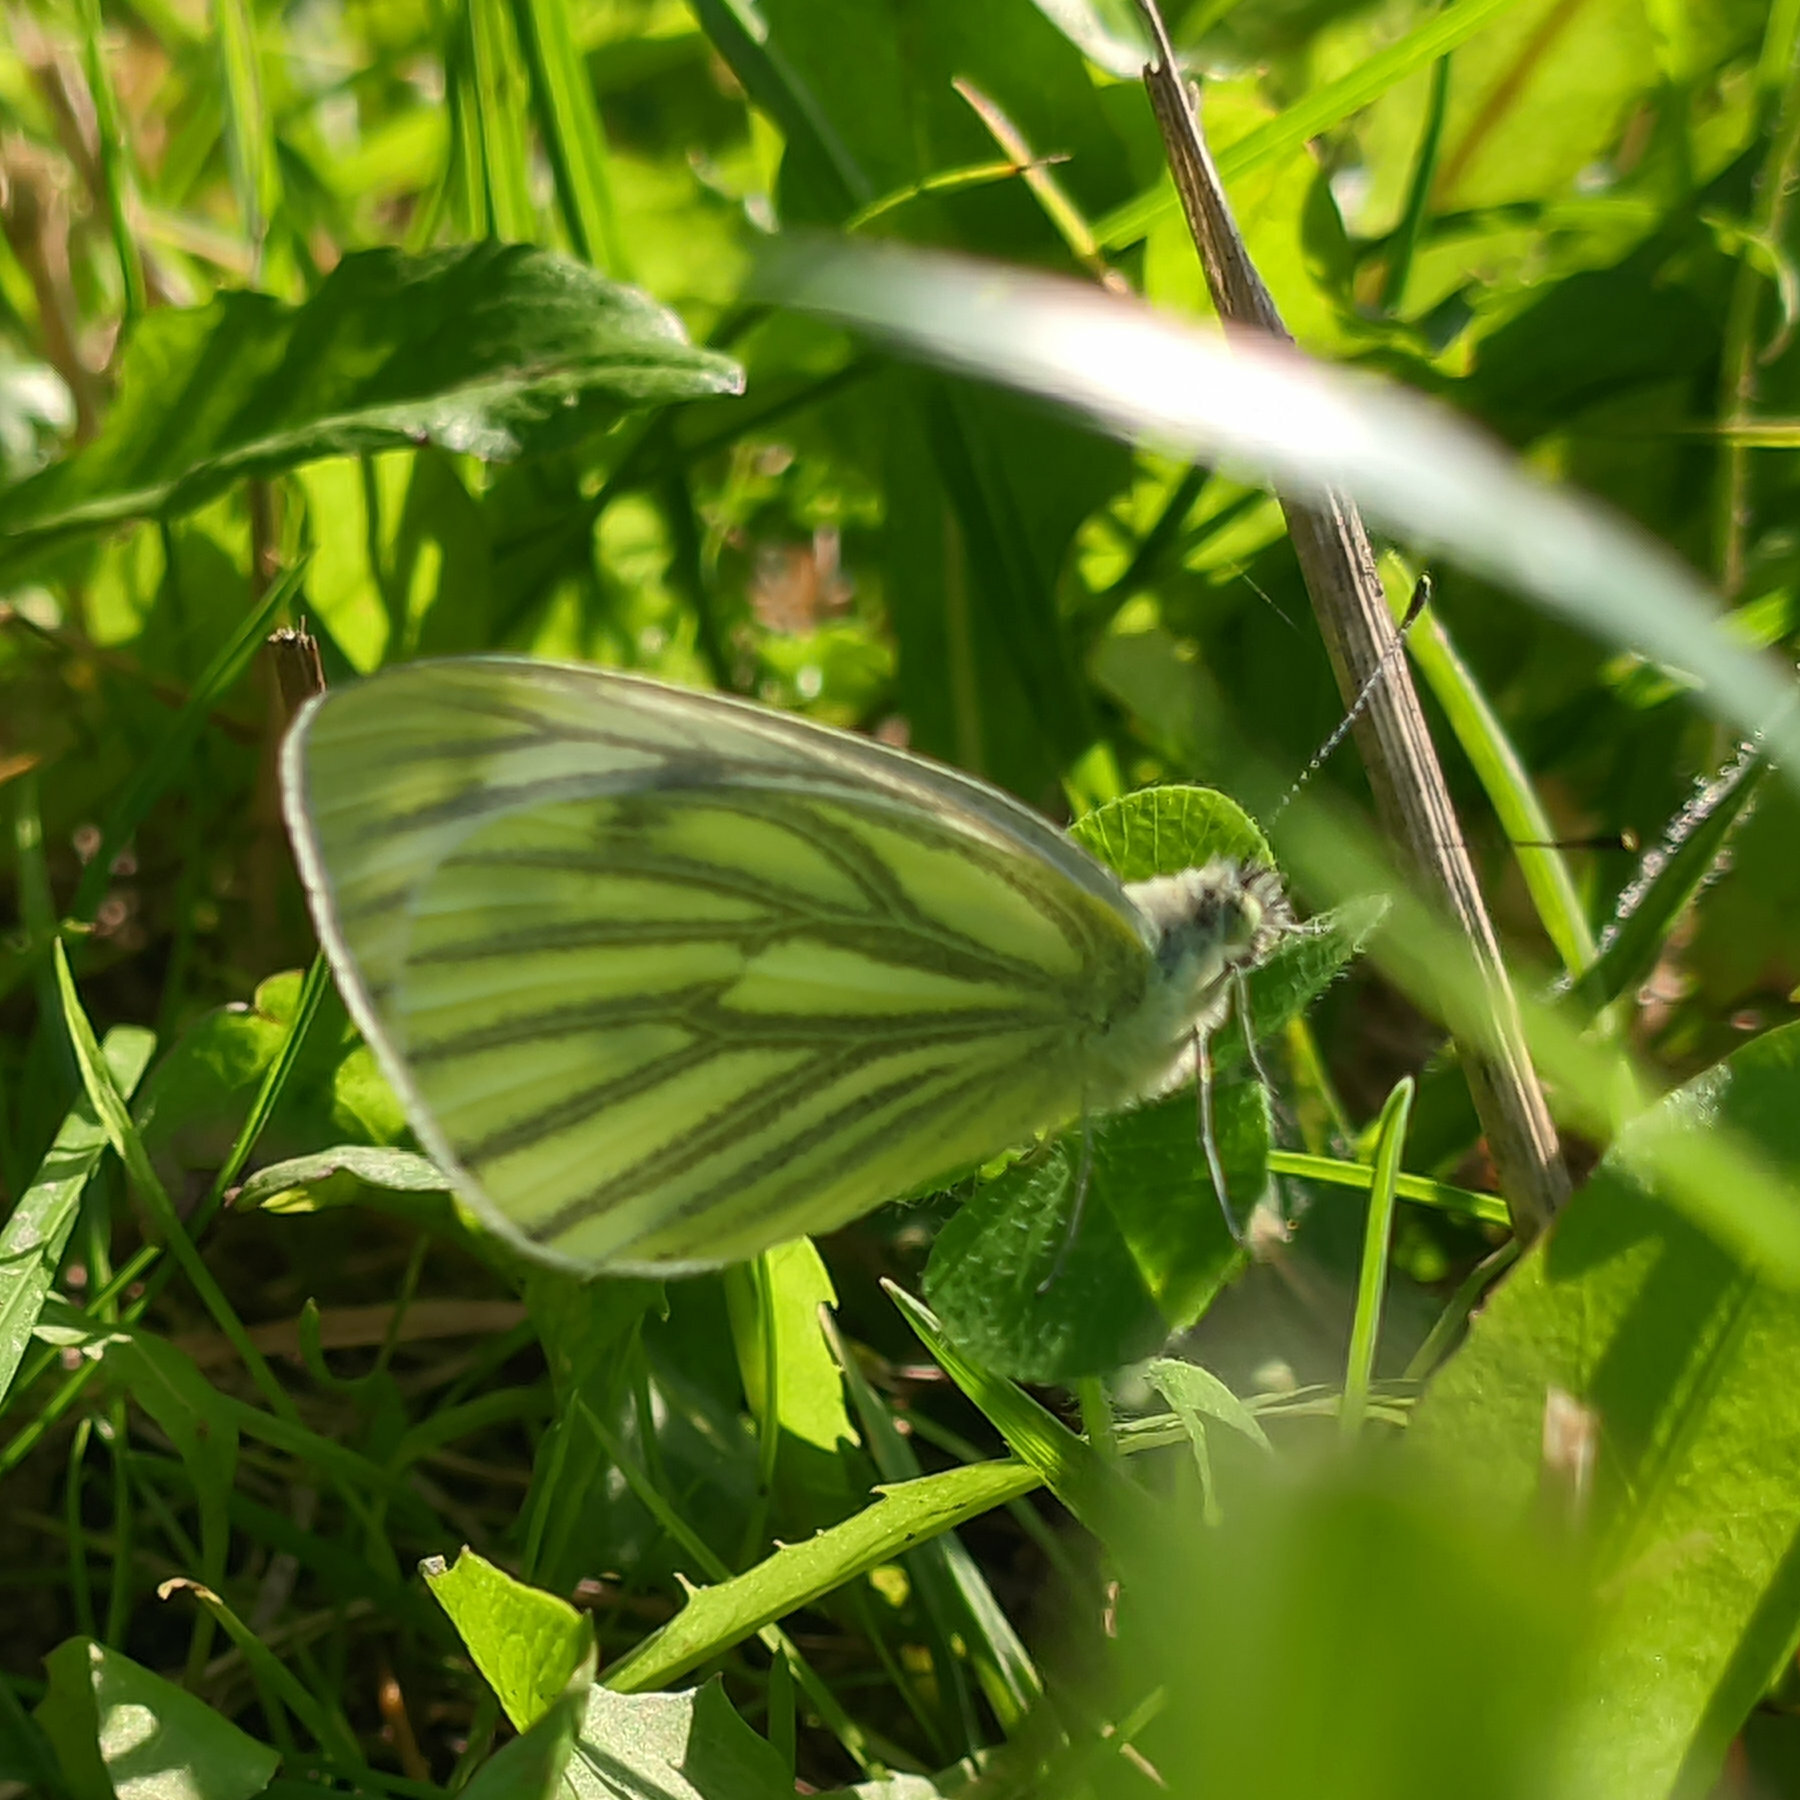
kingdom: Animalia
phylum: Arthropoda
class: Insecta
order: Lepidoptera
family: Pieridae
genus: Pieris
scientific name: Pieris napi
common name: Green-veined white
